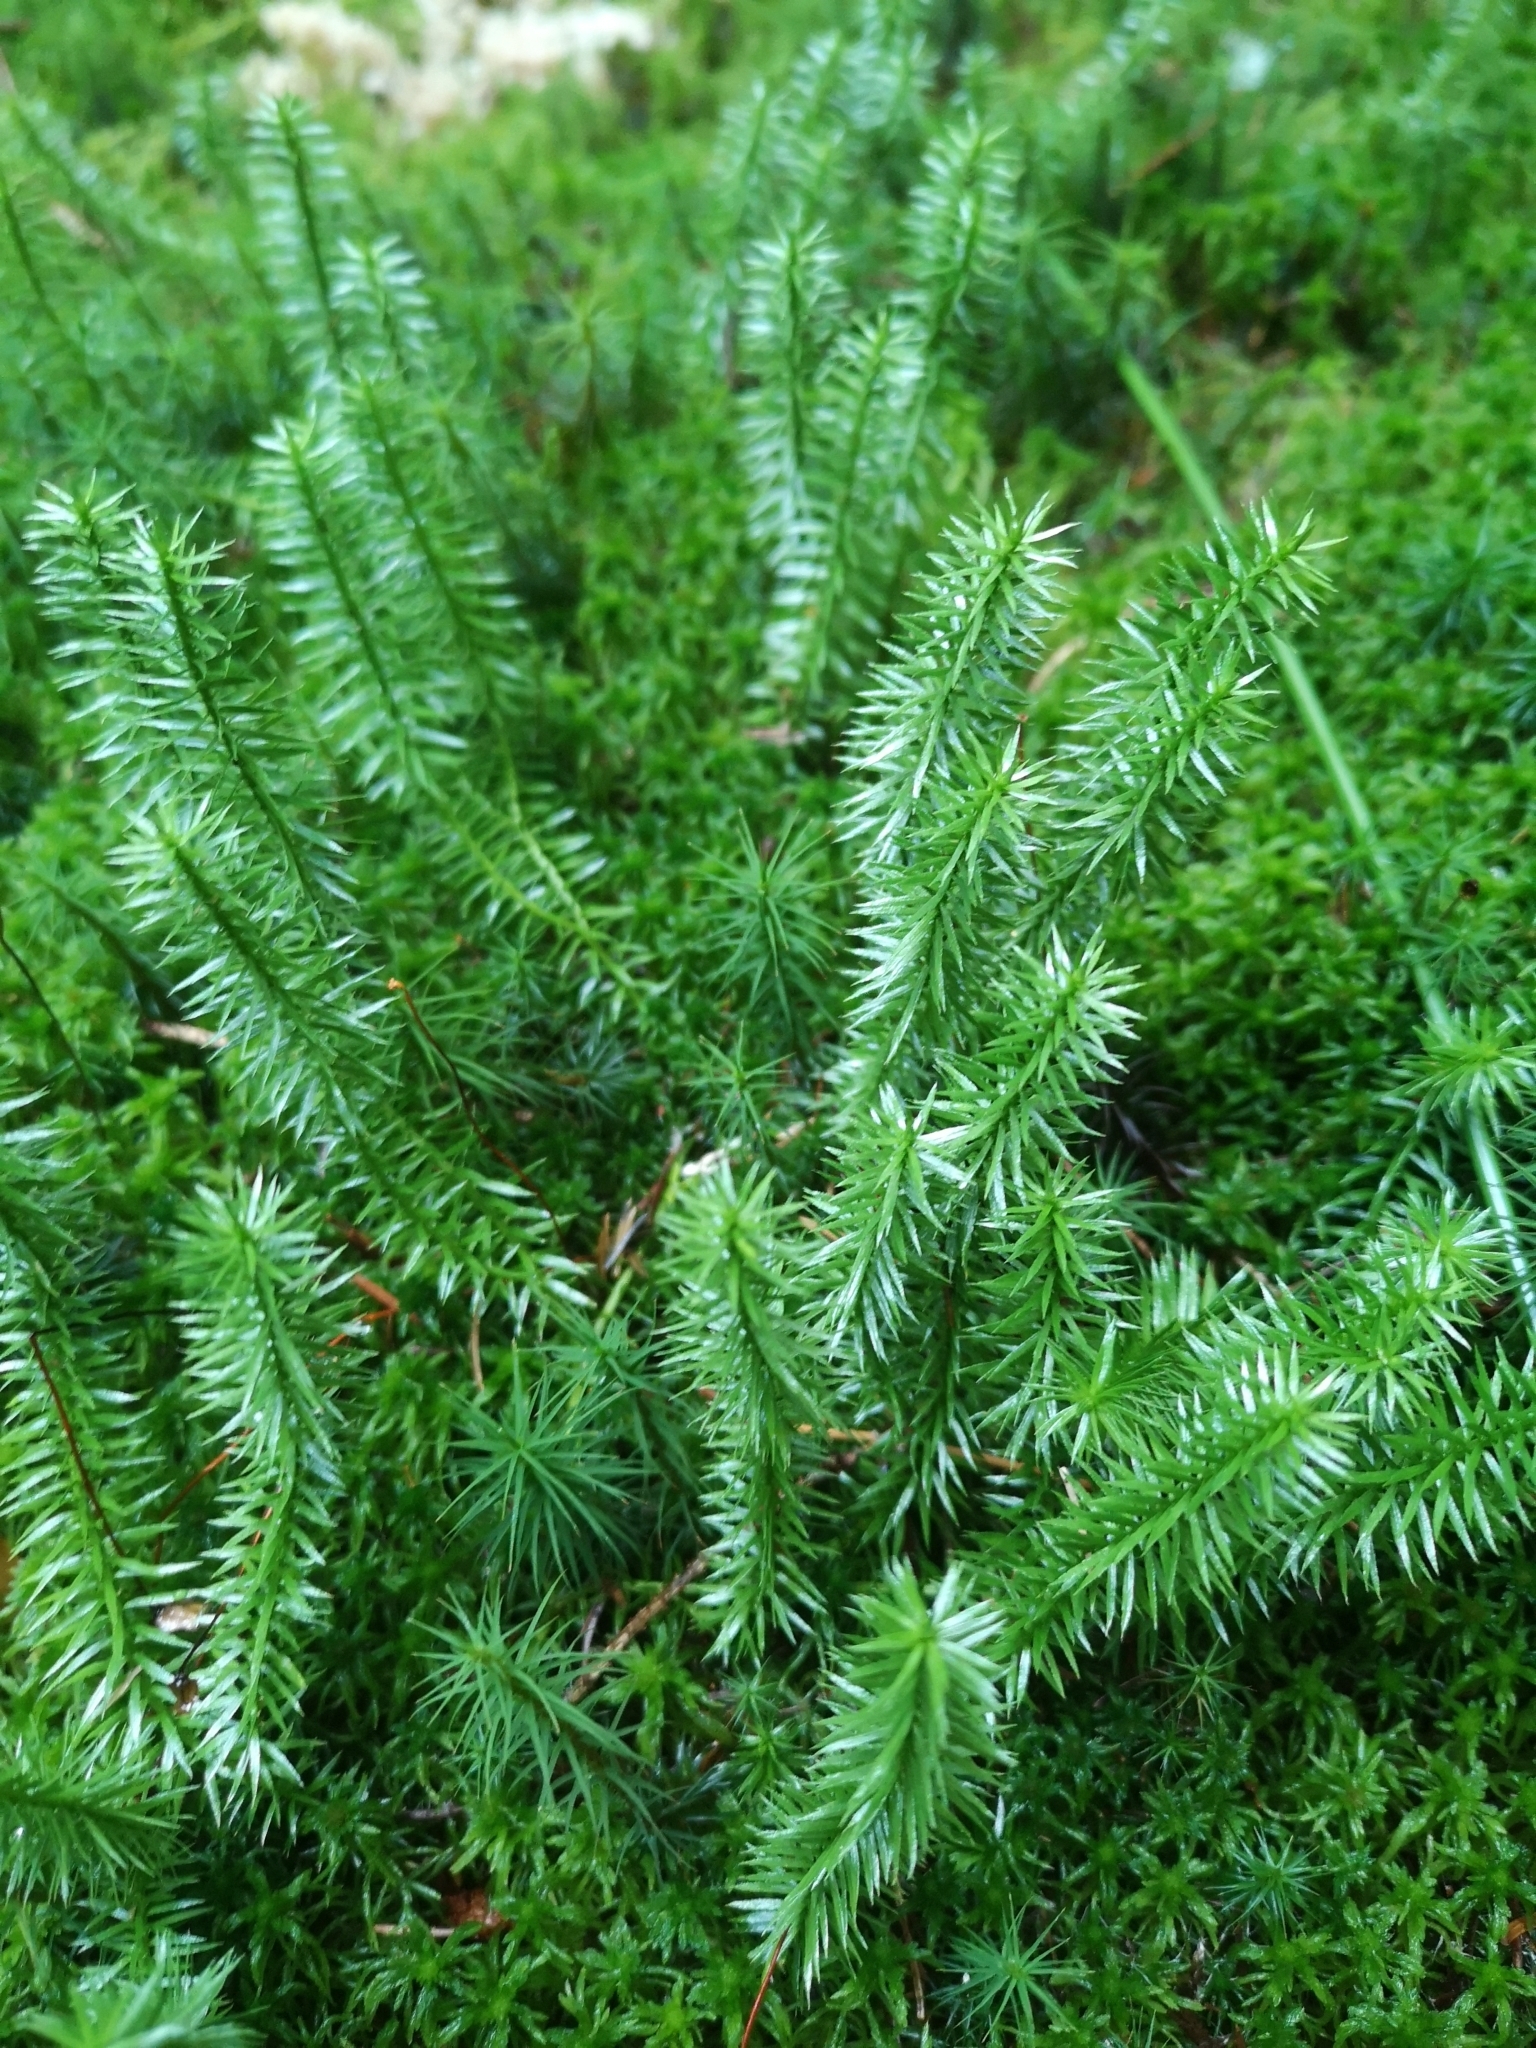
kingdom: Plantae
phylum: Tracheophyta
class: Lycopodiopsida
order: Lycopodiales
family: Lycopodiaceae
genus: Spinulum
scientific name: Spinulum annotinum
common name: Interrupted club-moss
